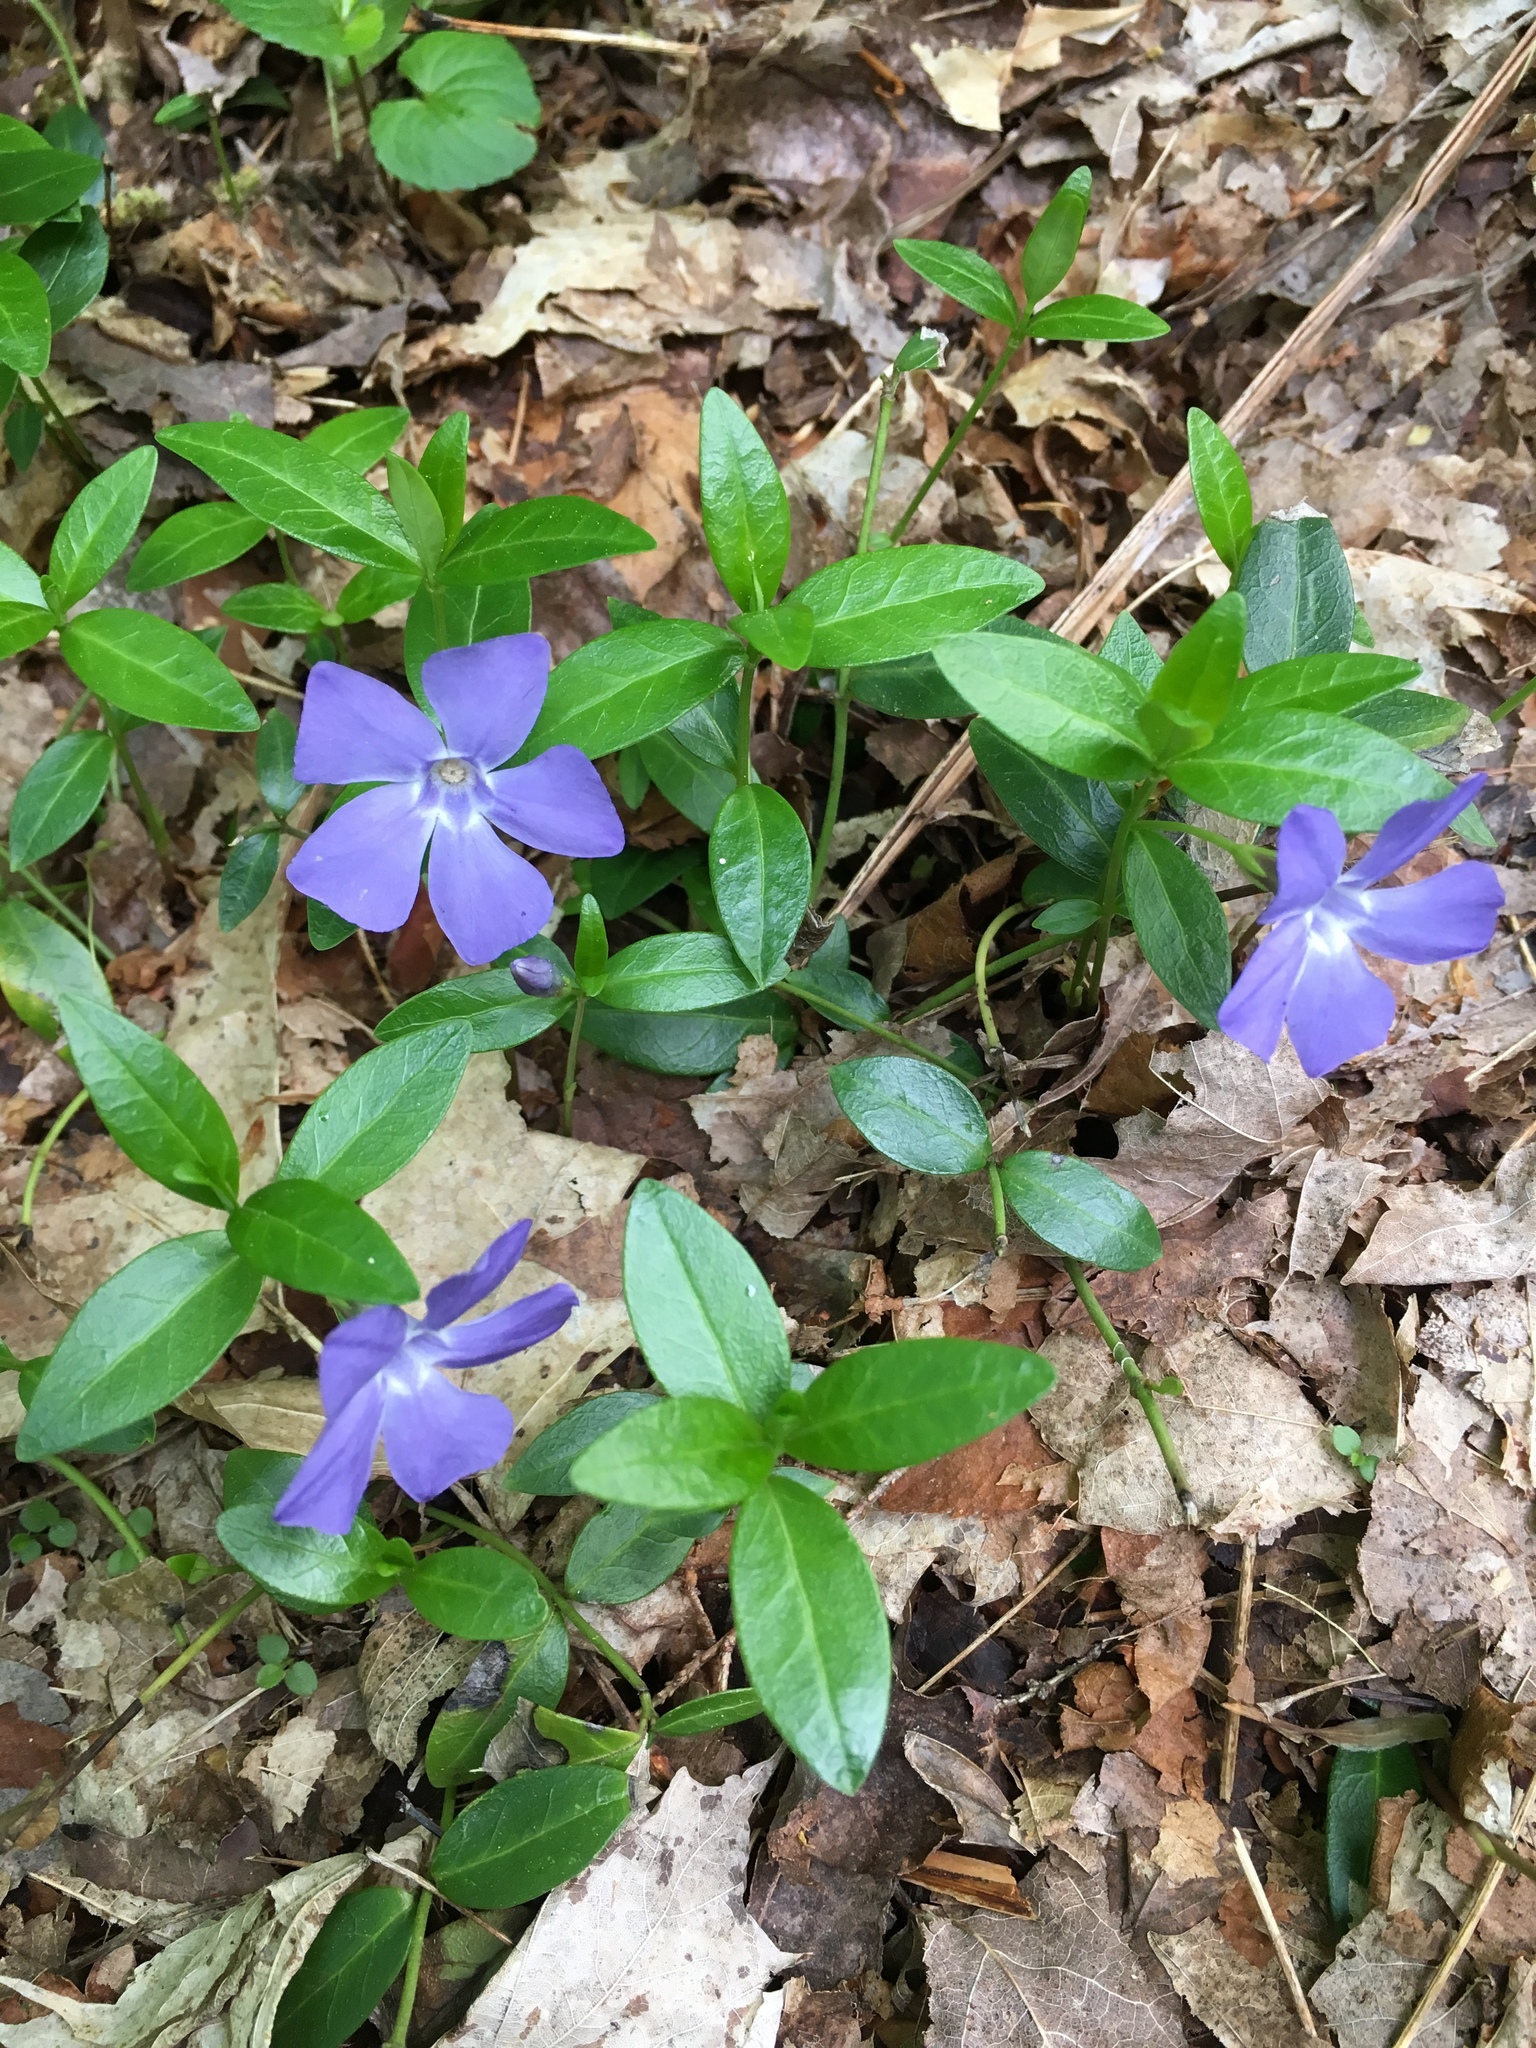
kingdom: Plantae
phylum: Tracheophyta
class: Magnoliopsida
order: Gentianales
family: Apocynaceae
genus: Vinca
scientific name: Vinca minor
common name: Lesser periwinkle
